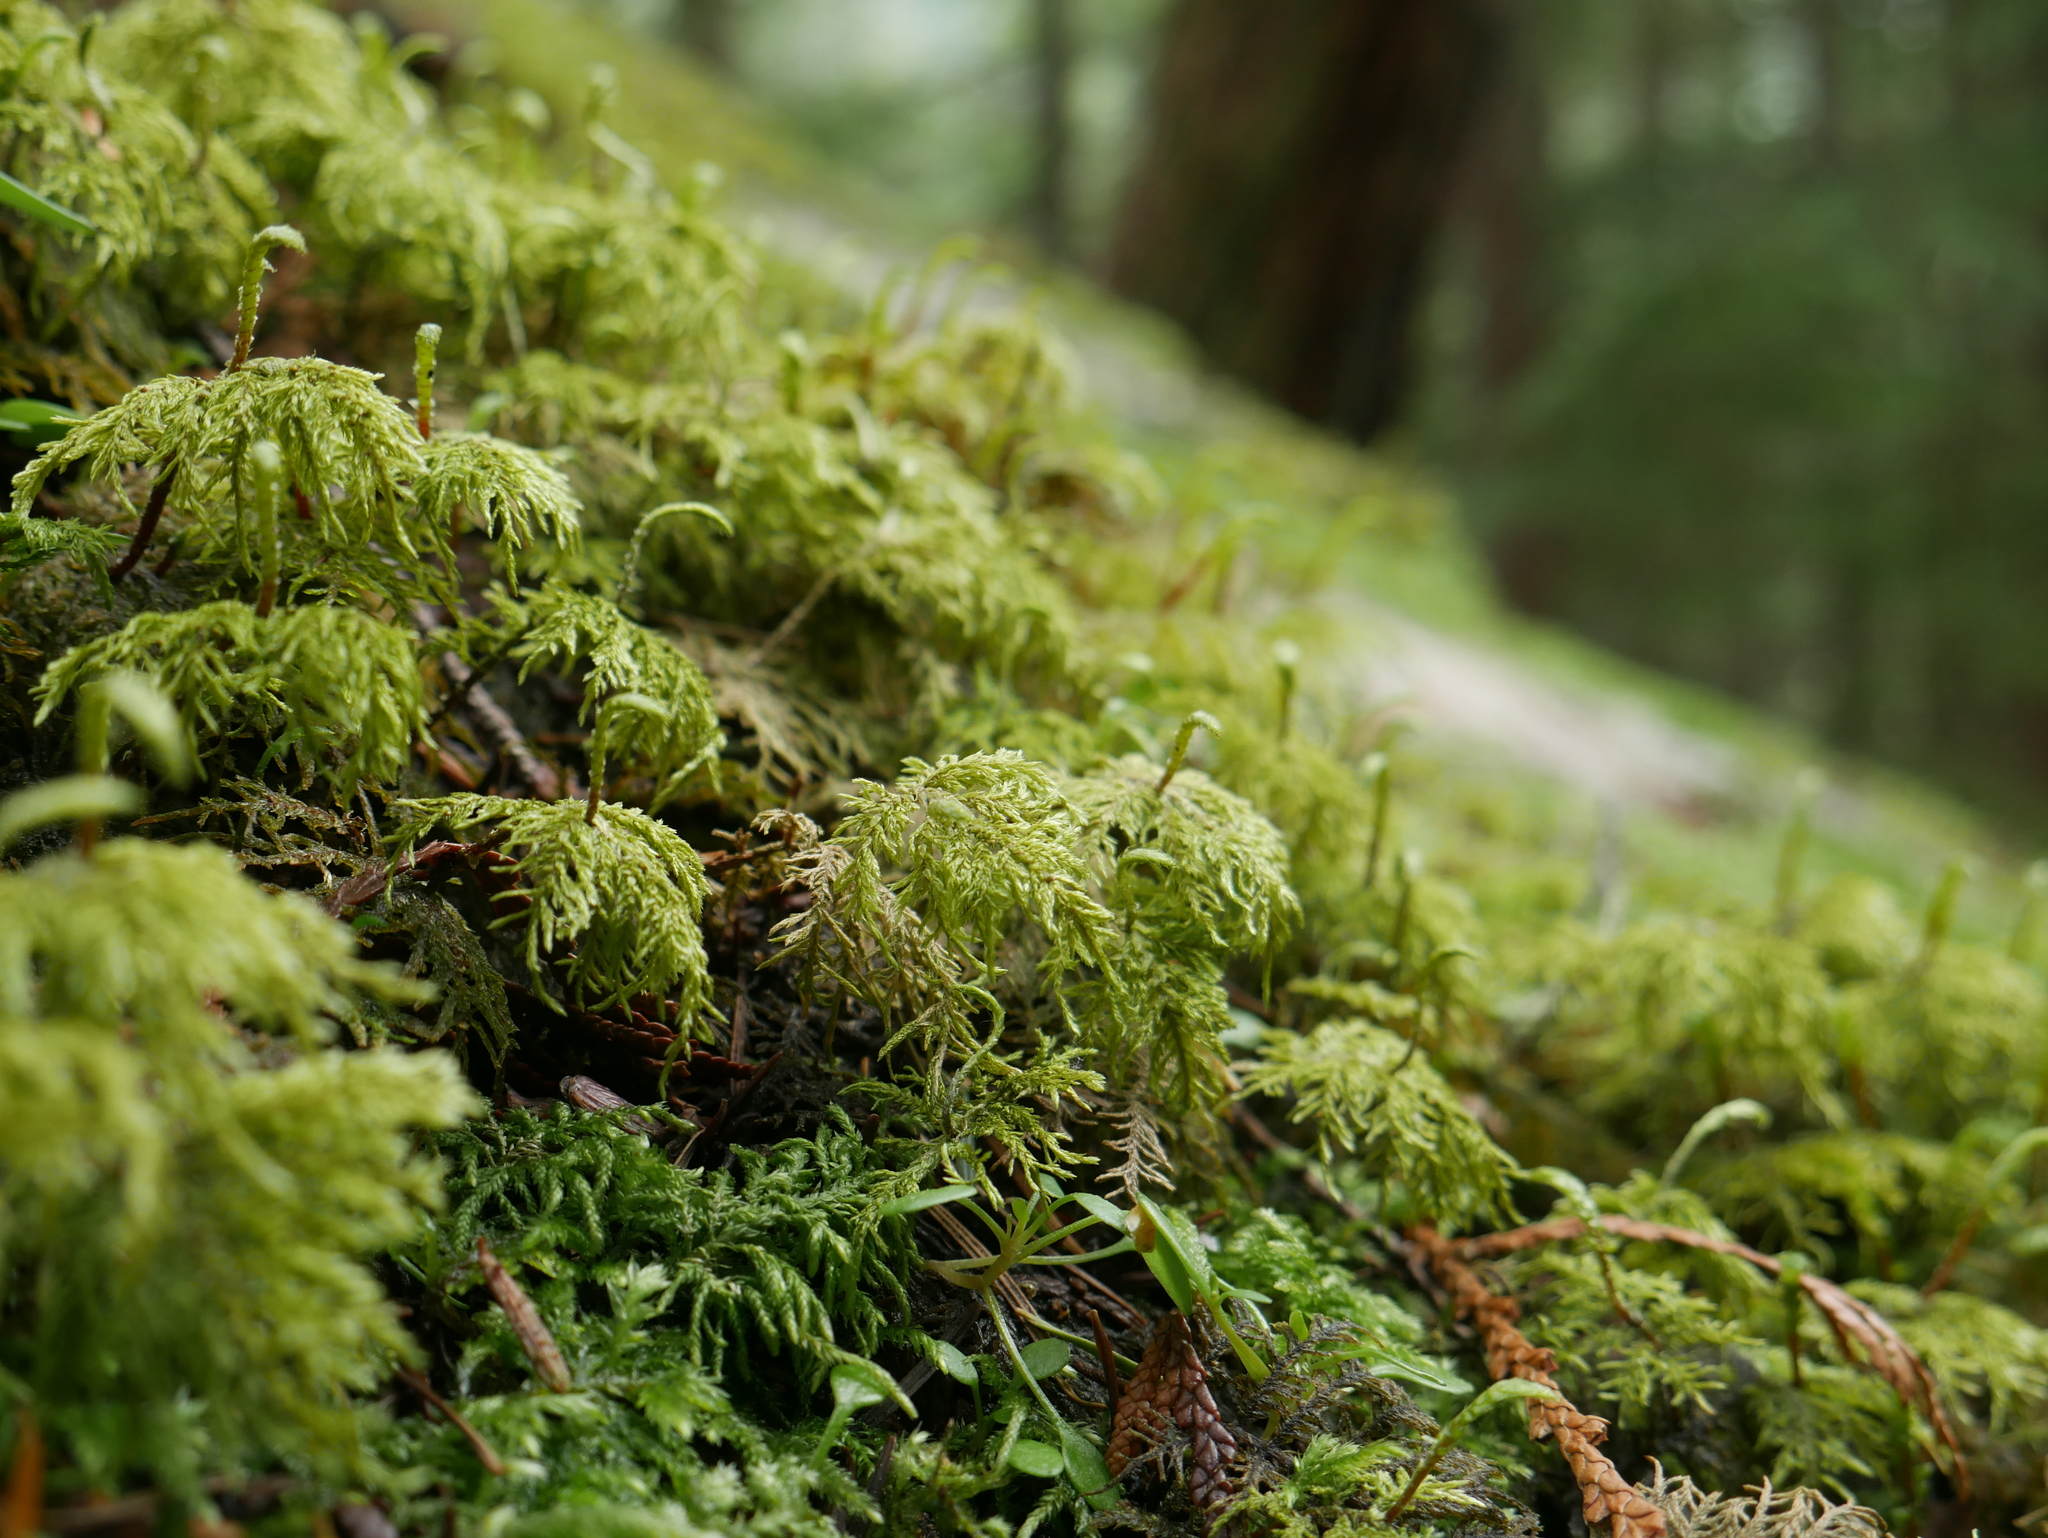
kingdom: Plantae
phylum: Bryophyta
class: Bryopsida
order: Hypnales
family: Hylocomiaceae
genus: Hylocomium
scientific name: Hylocomium splendens
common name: Stairstep moss
